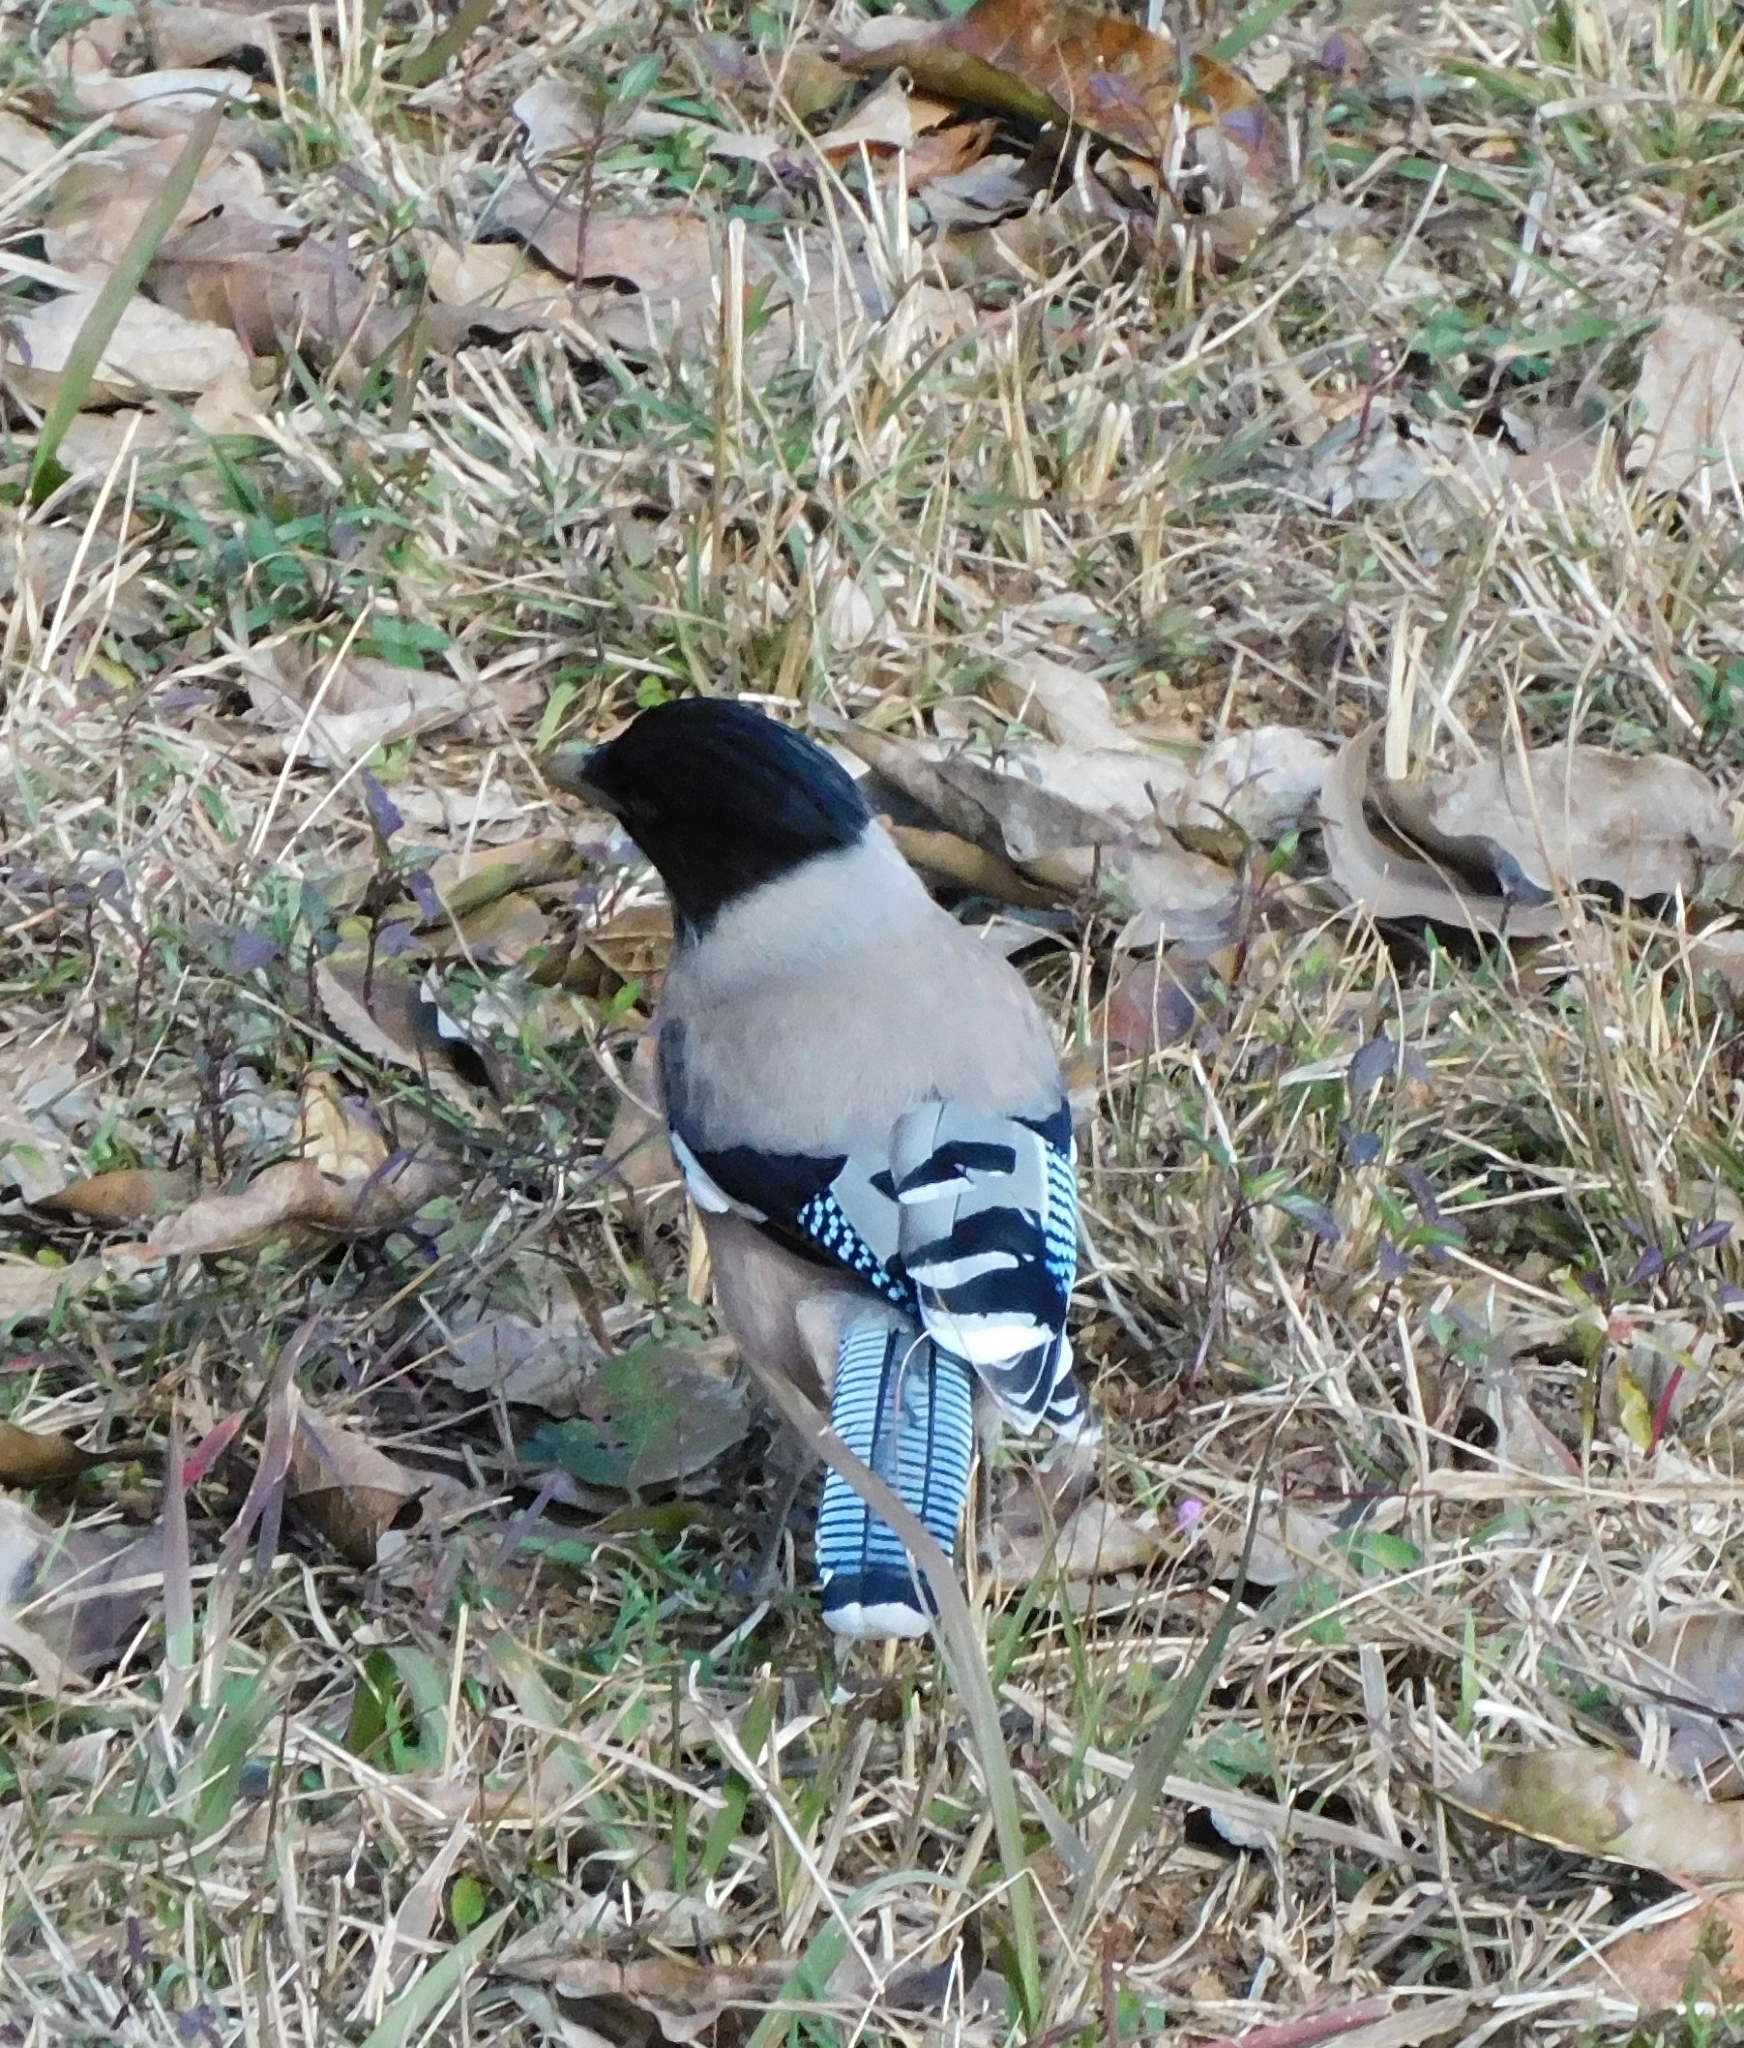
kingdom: Animalia
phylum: Chordata
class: Aves
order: Passeriformes
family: Corvidae
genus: Garrulus
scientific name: Garrulus lanceolatus
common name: Black-headed jay
